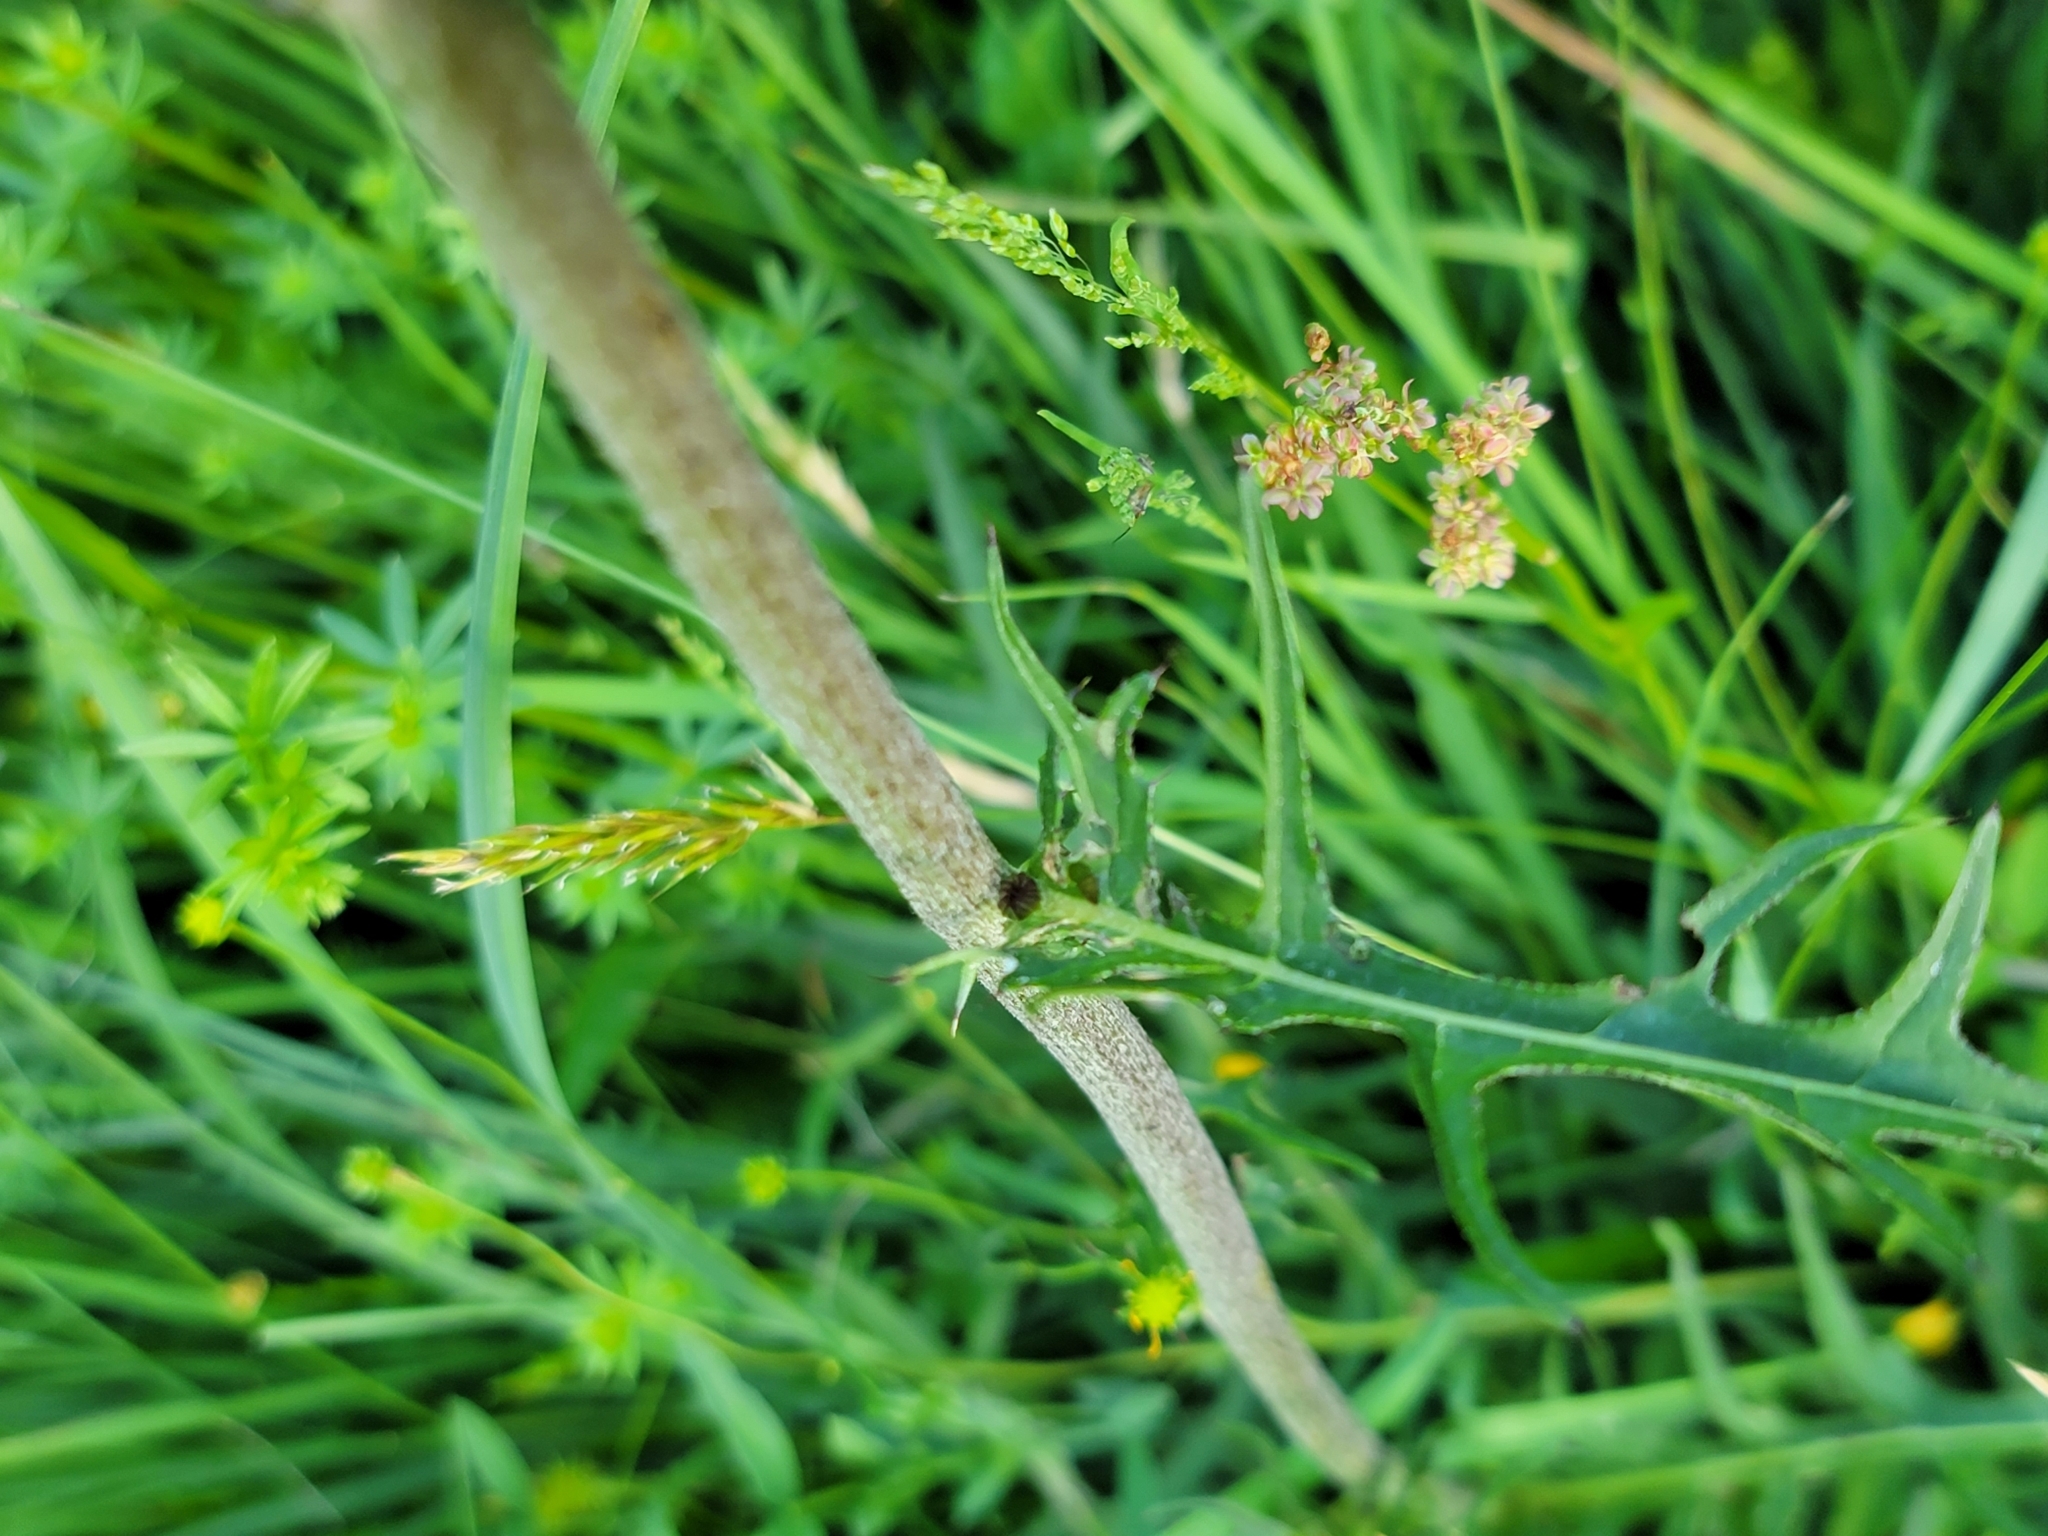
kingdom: Plantae
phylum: Tracheophyta
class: Magnoliopsida
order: Asterales
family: Asteraceae
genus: Cirsium
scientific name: Cirsium rivulare
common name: Brook thistle
